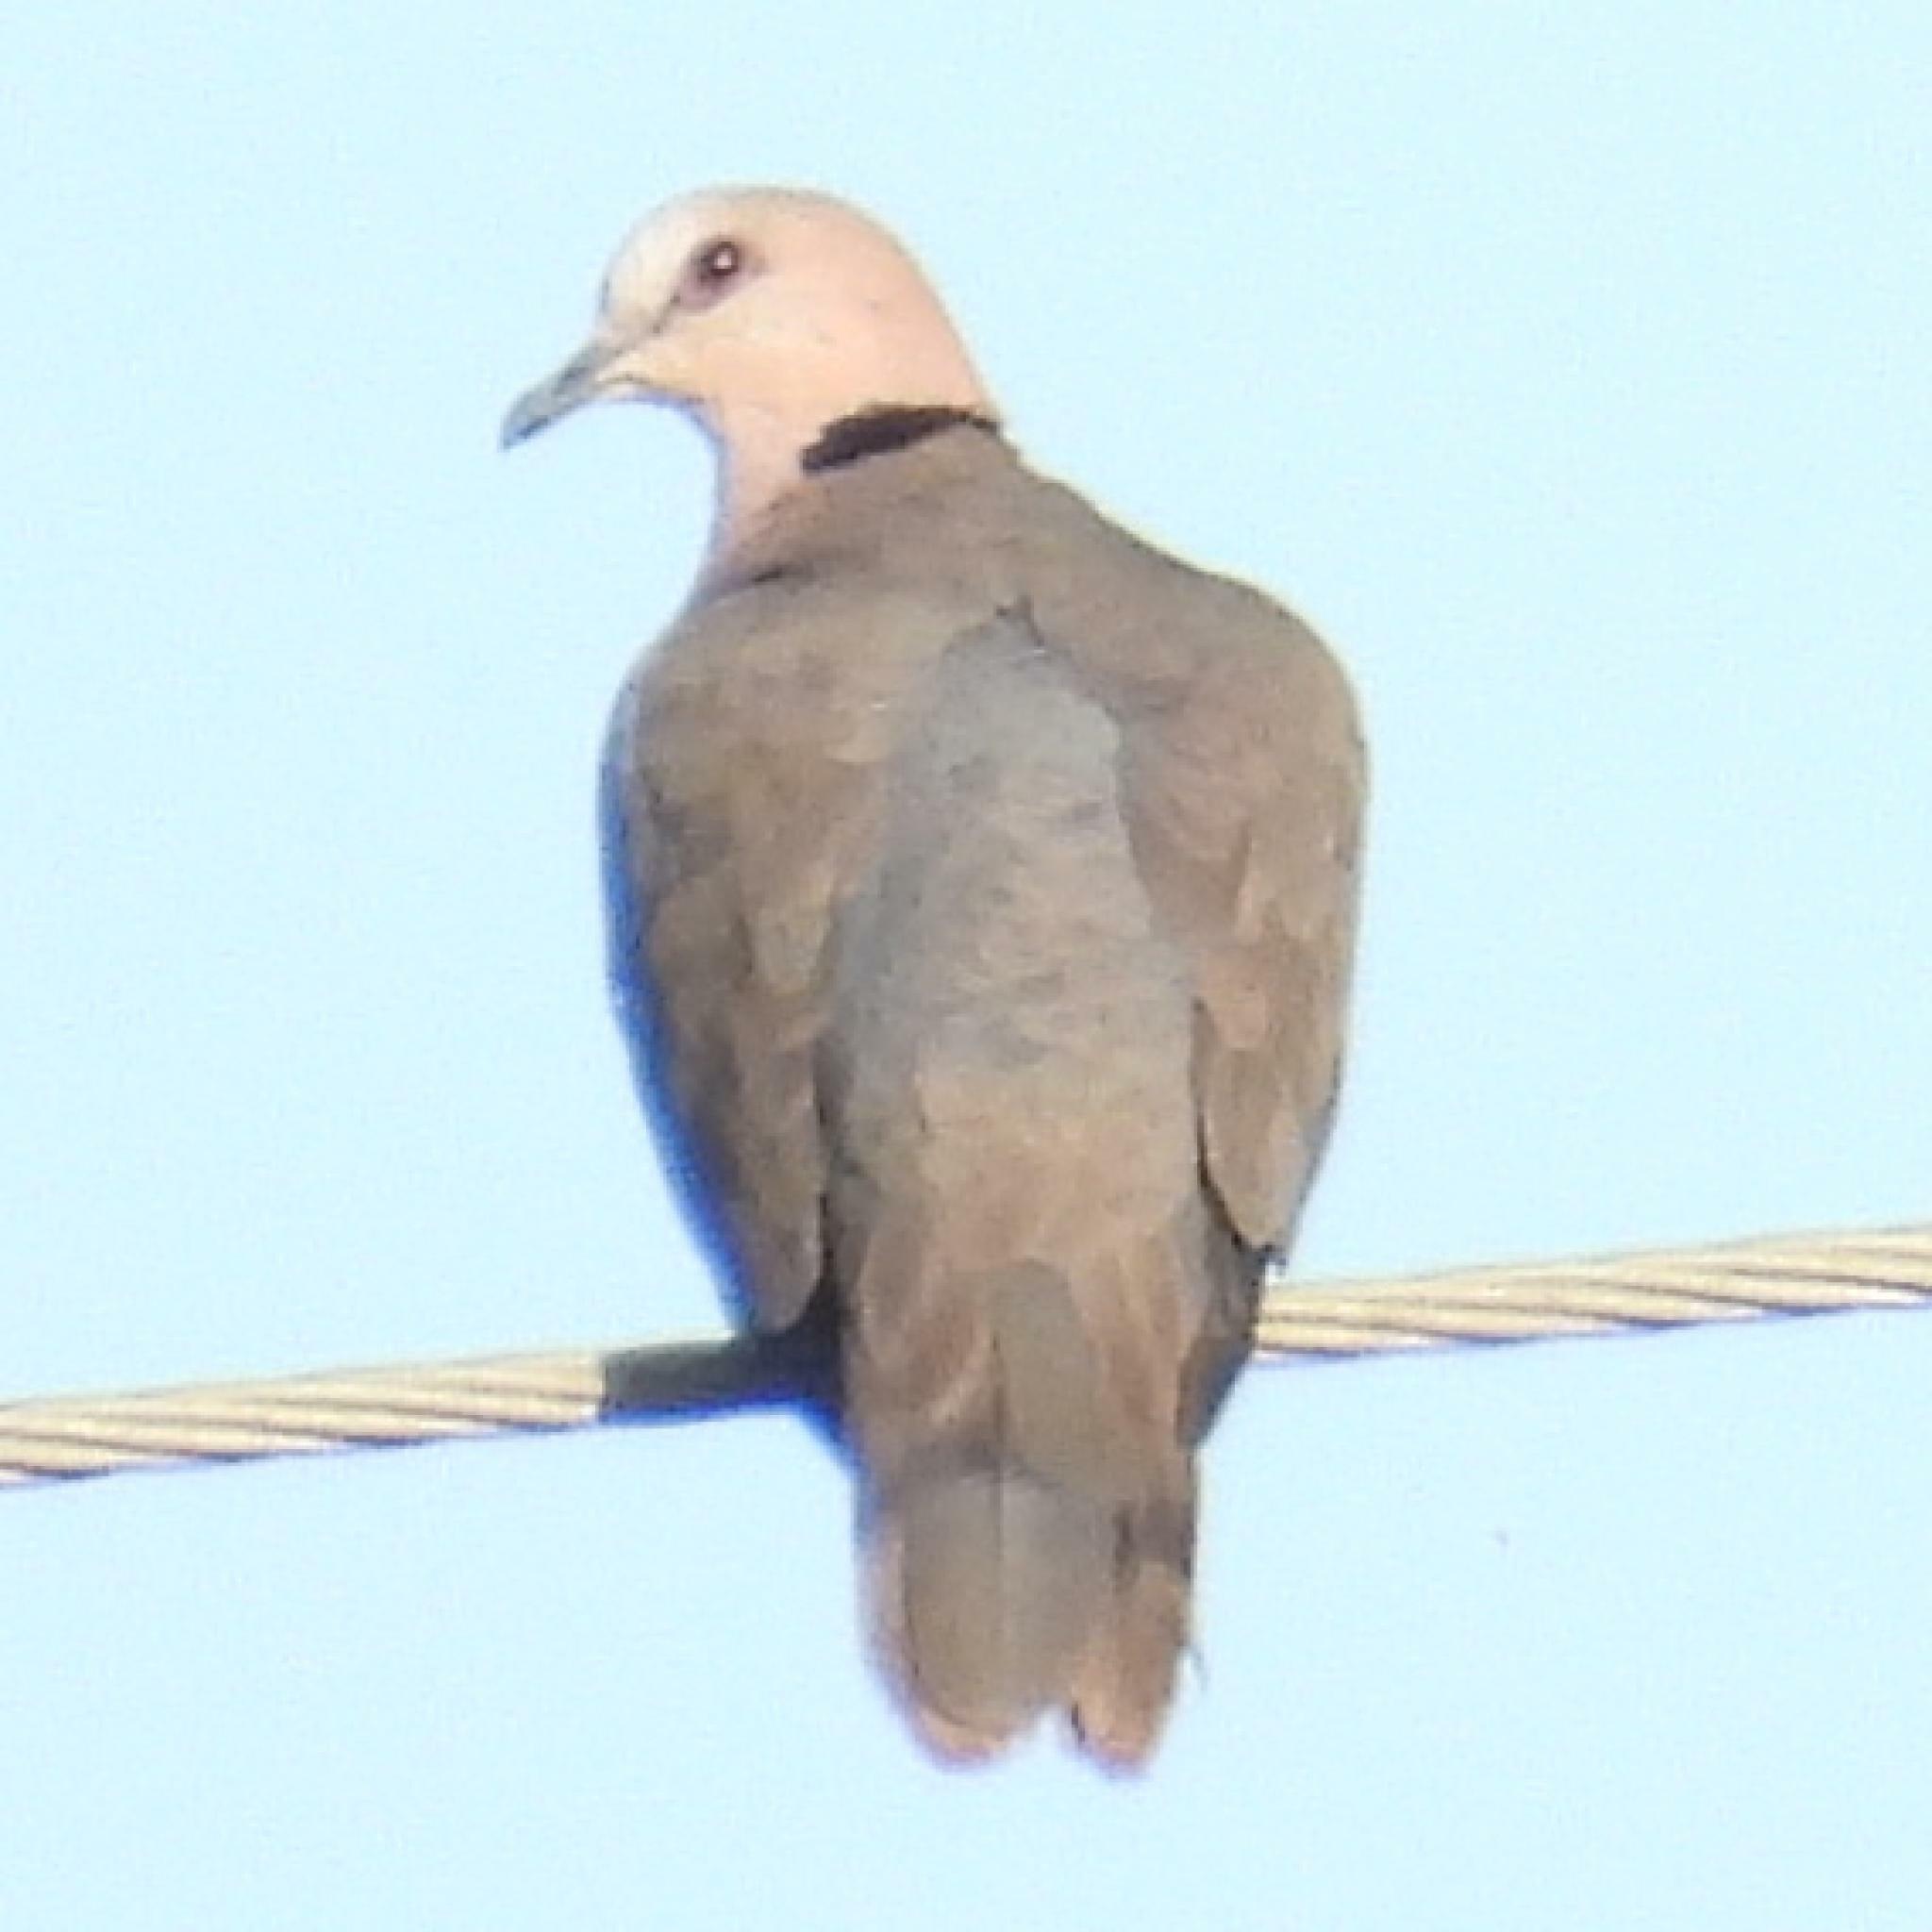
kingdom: Animalia
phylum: Chordata
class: Aves
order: Columbiformes
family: Columbidae
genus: Streptopelia
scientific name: Streptopelia semitorquata
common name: Red-eyed dove
